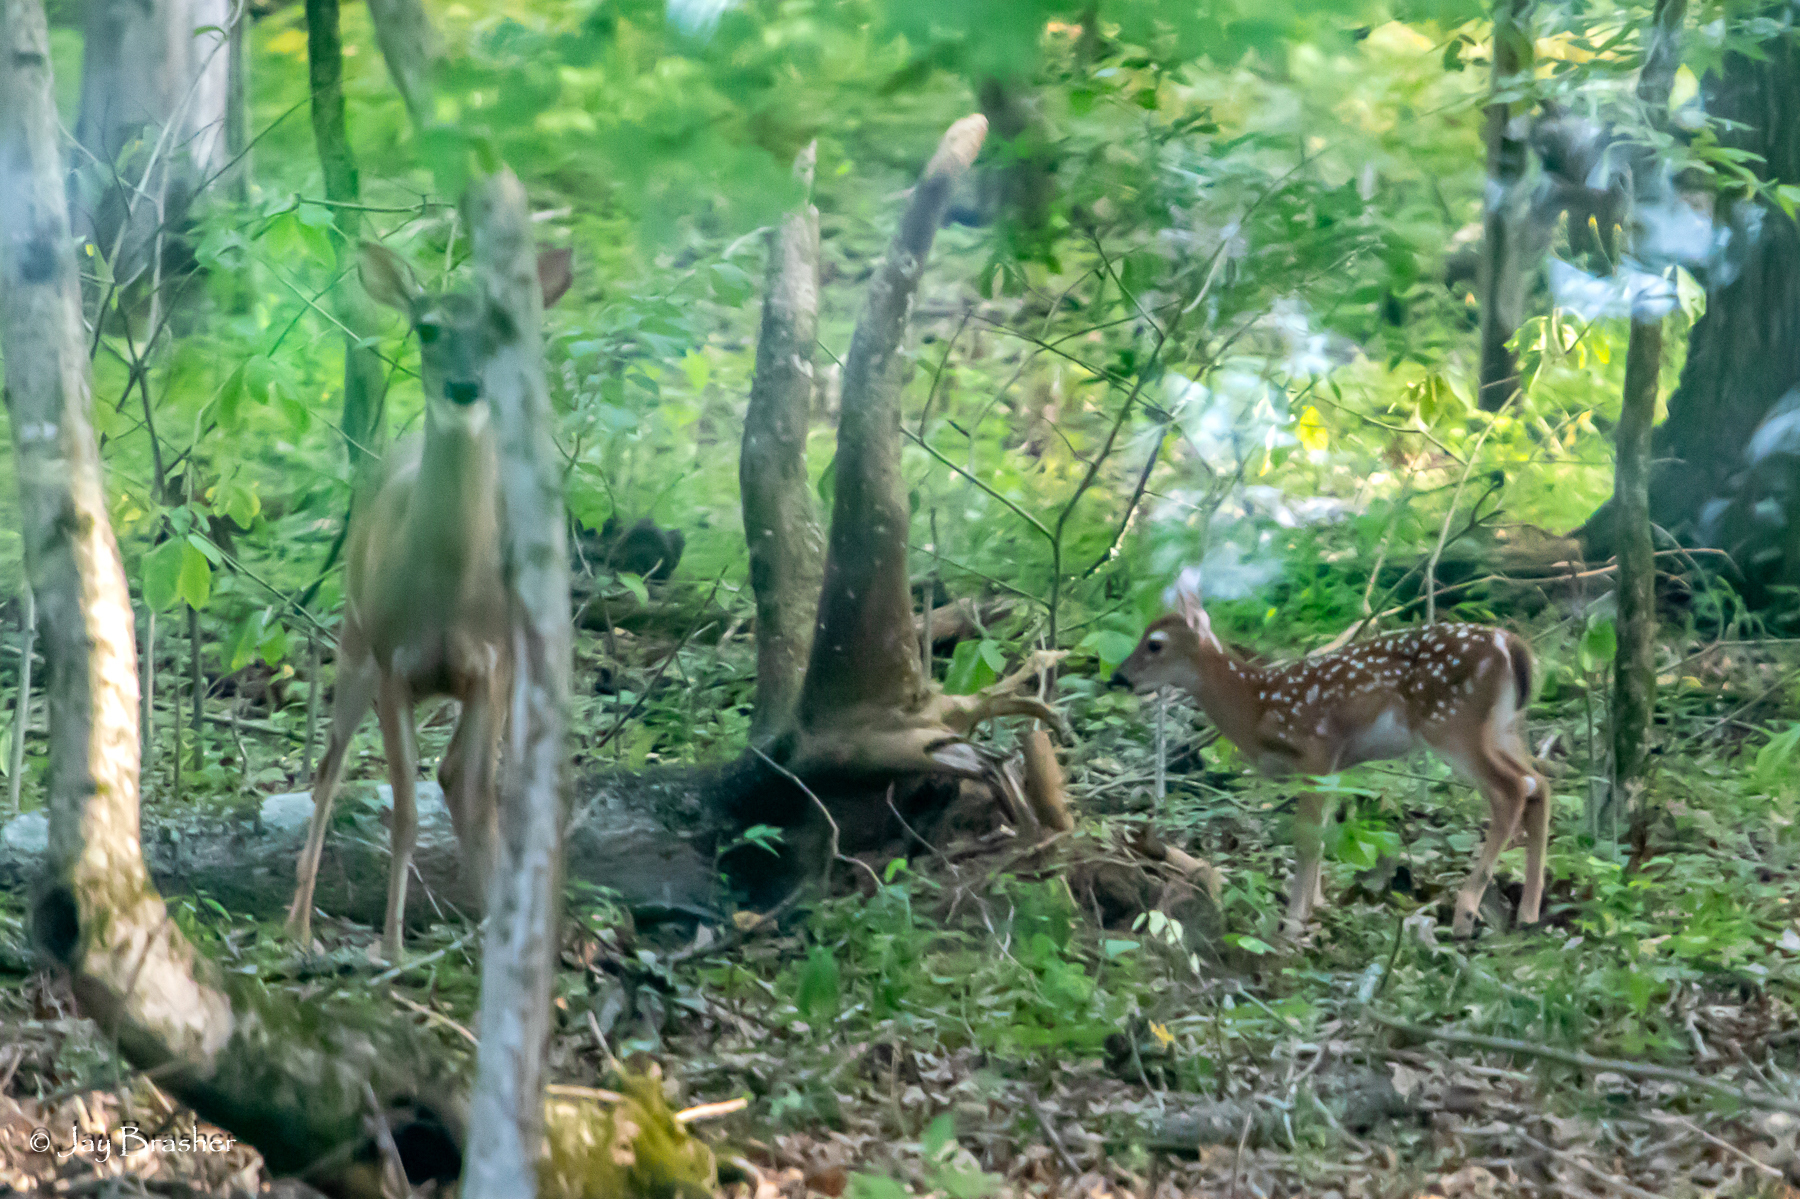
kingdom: Animalia
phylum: Chordata
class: Mammalia
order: Artiodactyla
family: Cervidae
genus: Odocoileus
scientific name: Odocoileus virginianus
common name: White-tailed deer
